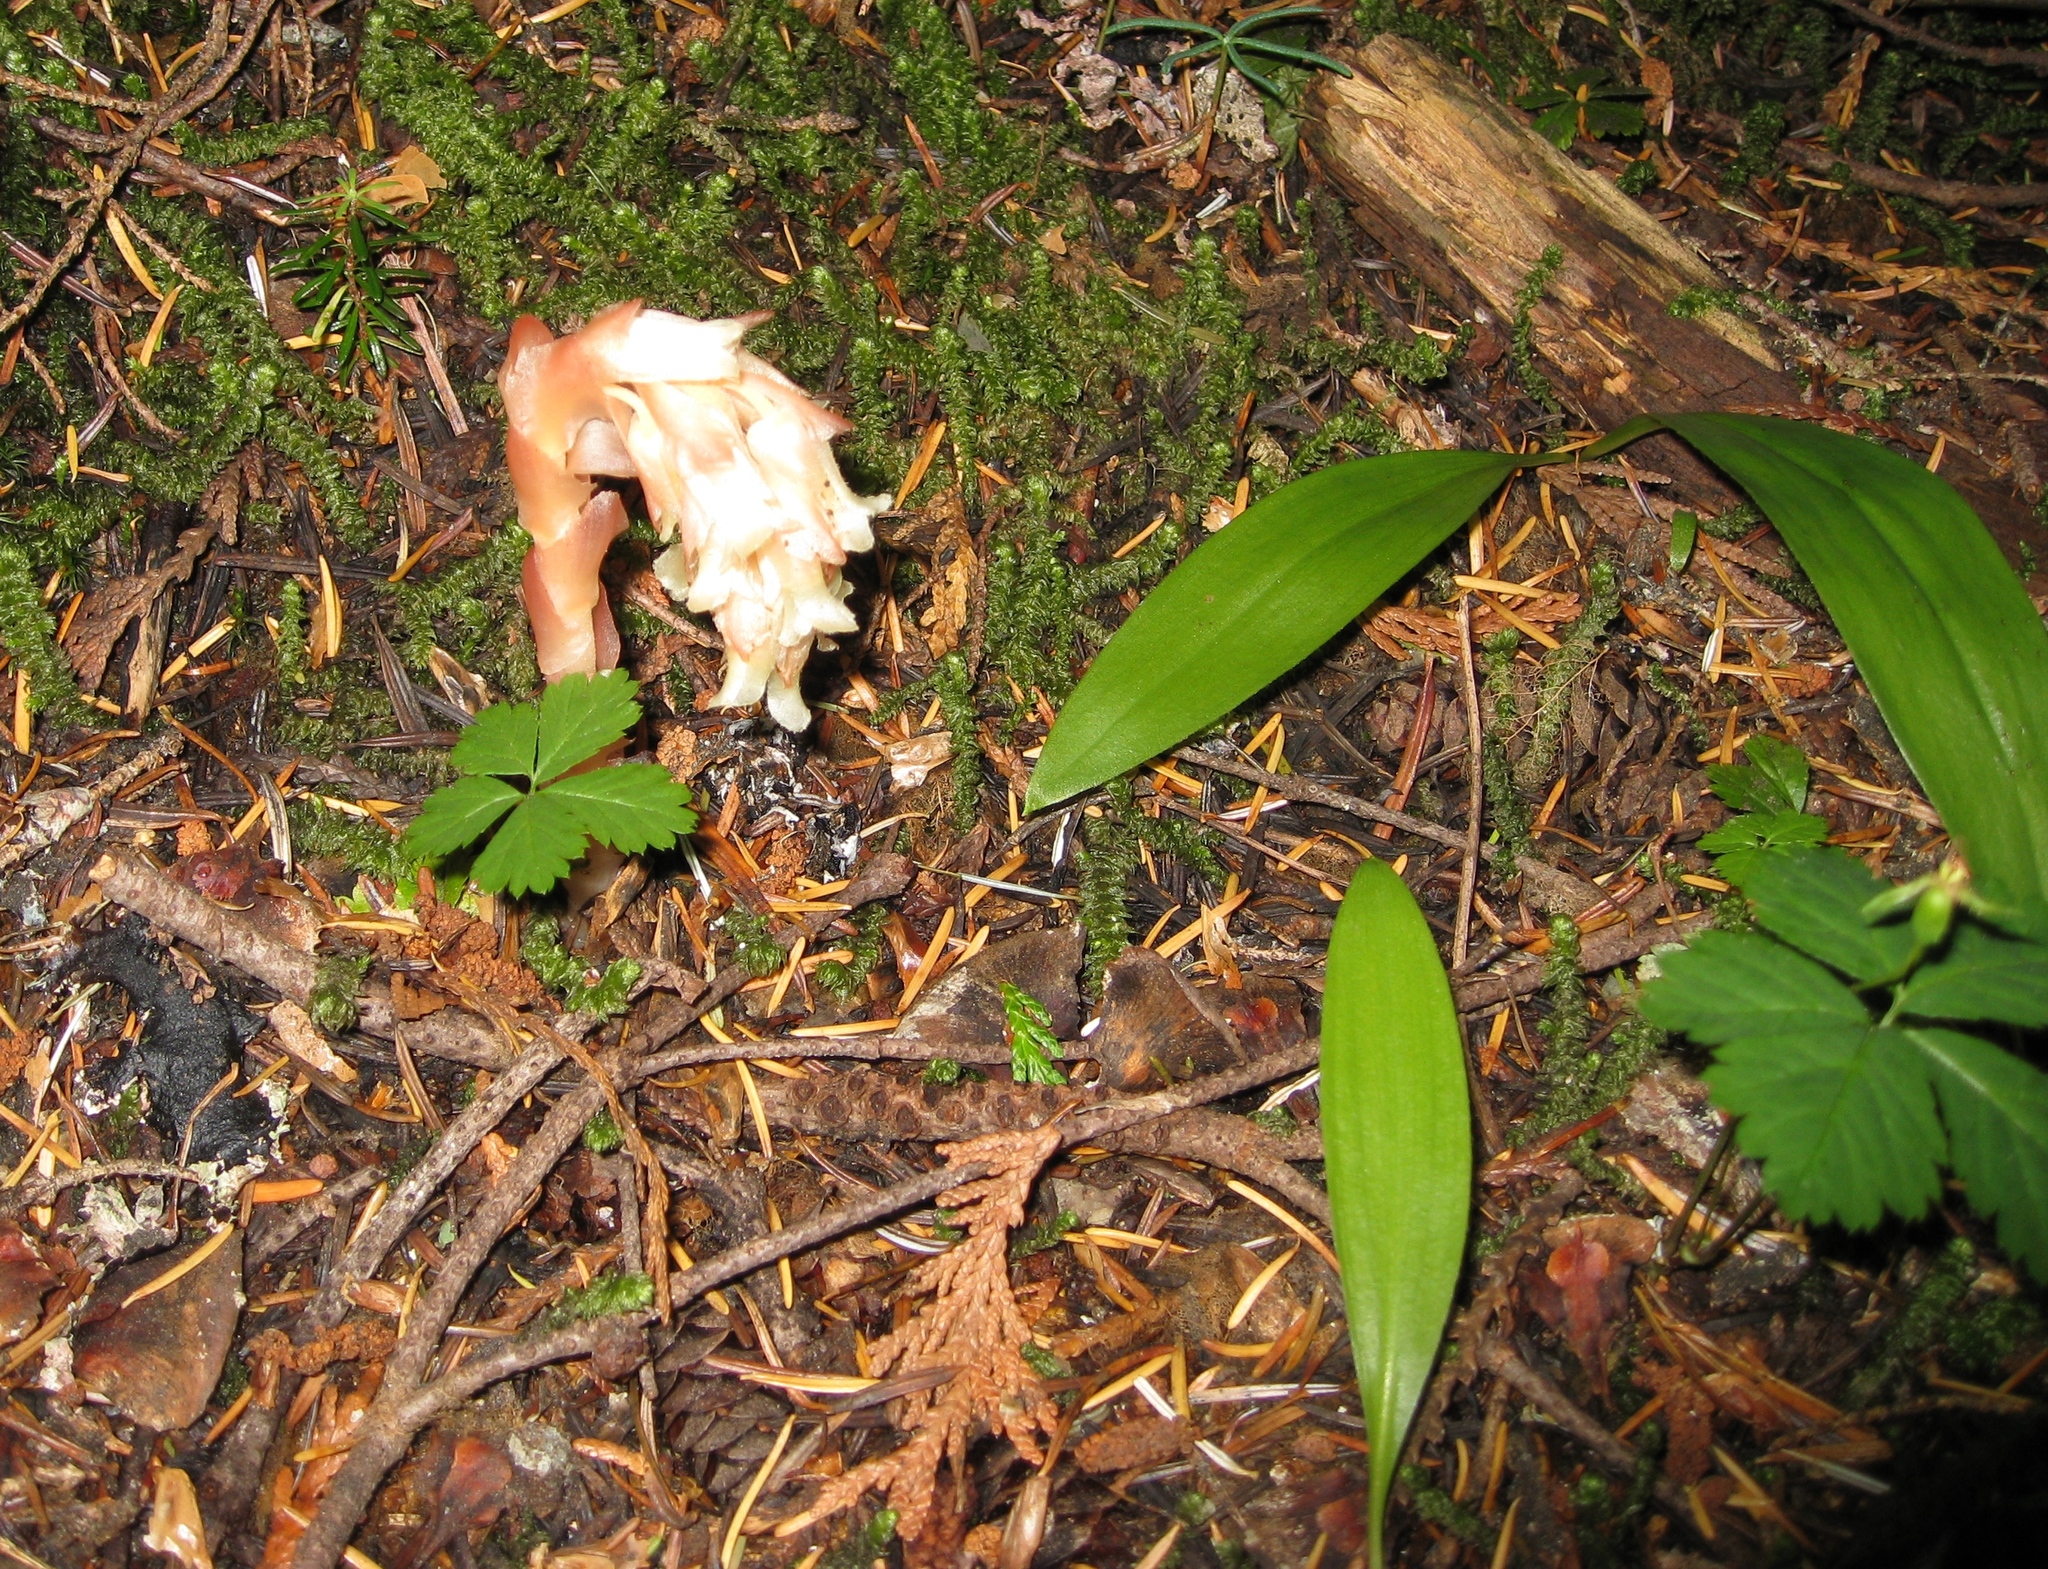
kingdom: Plantae
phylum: Tracheophyta
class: Magnoliopsida
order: Ericales
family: Ericaceae
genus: Hypopitys
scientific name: Hypopitys monotropa
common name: Yellow bird's-nest
